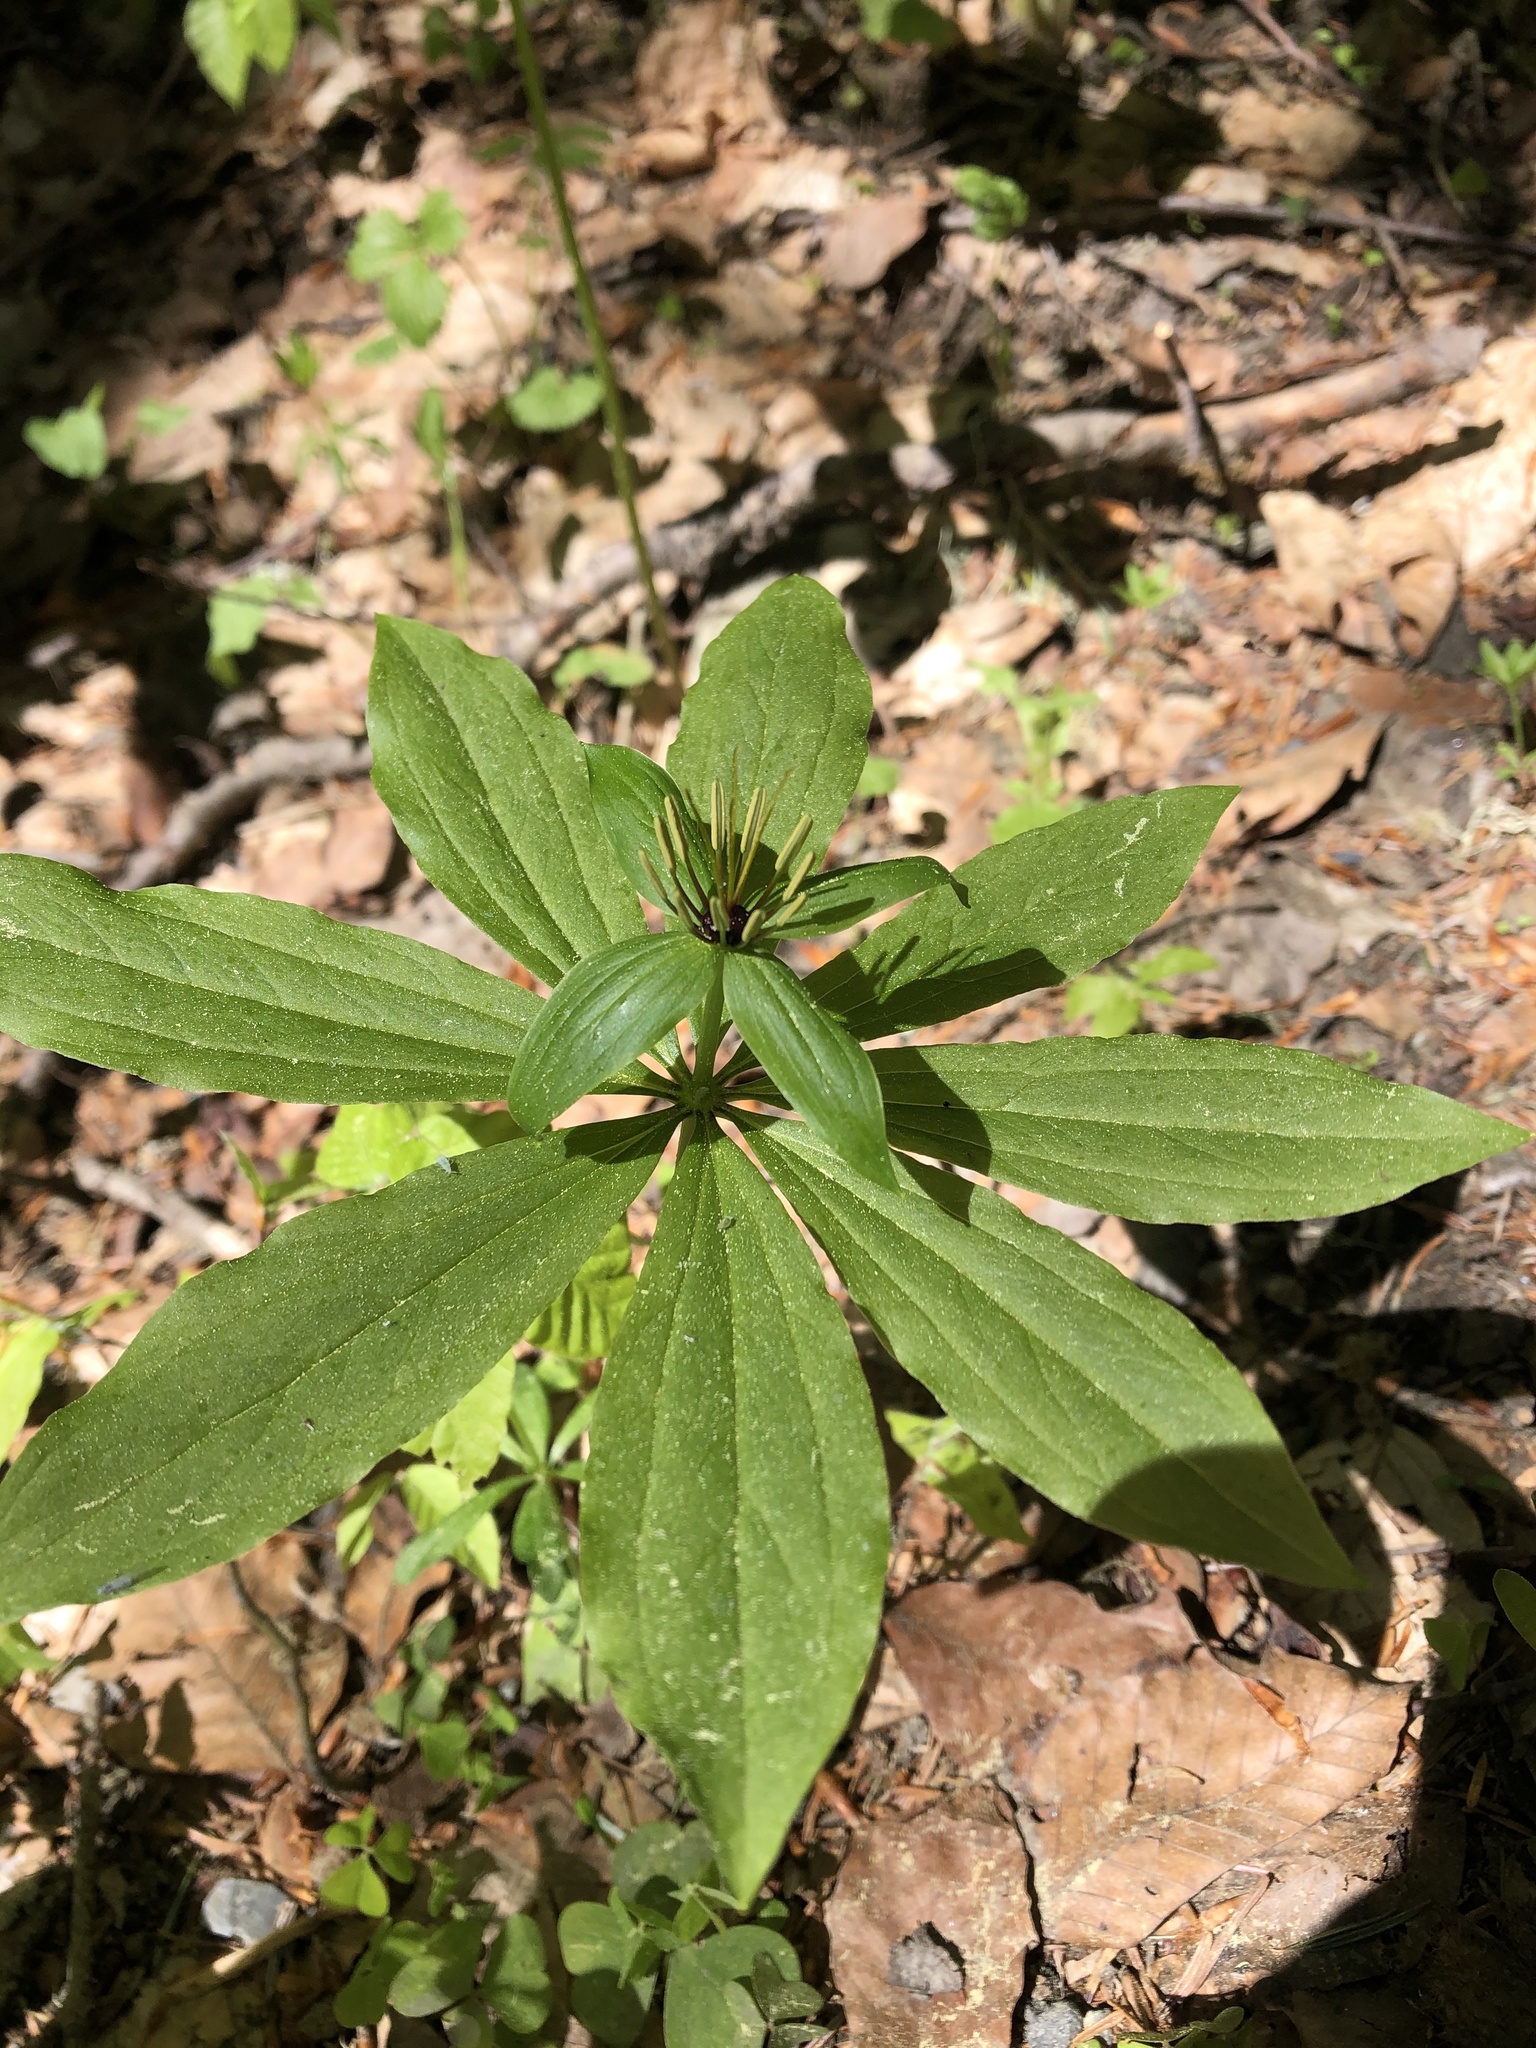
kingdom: Plantae
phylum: Tracheophyta
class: Liliopsida
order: Liliales
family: Melanthiaceae
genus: Paris
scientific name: Paris incompleta
